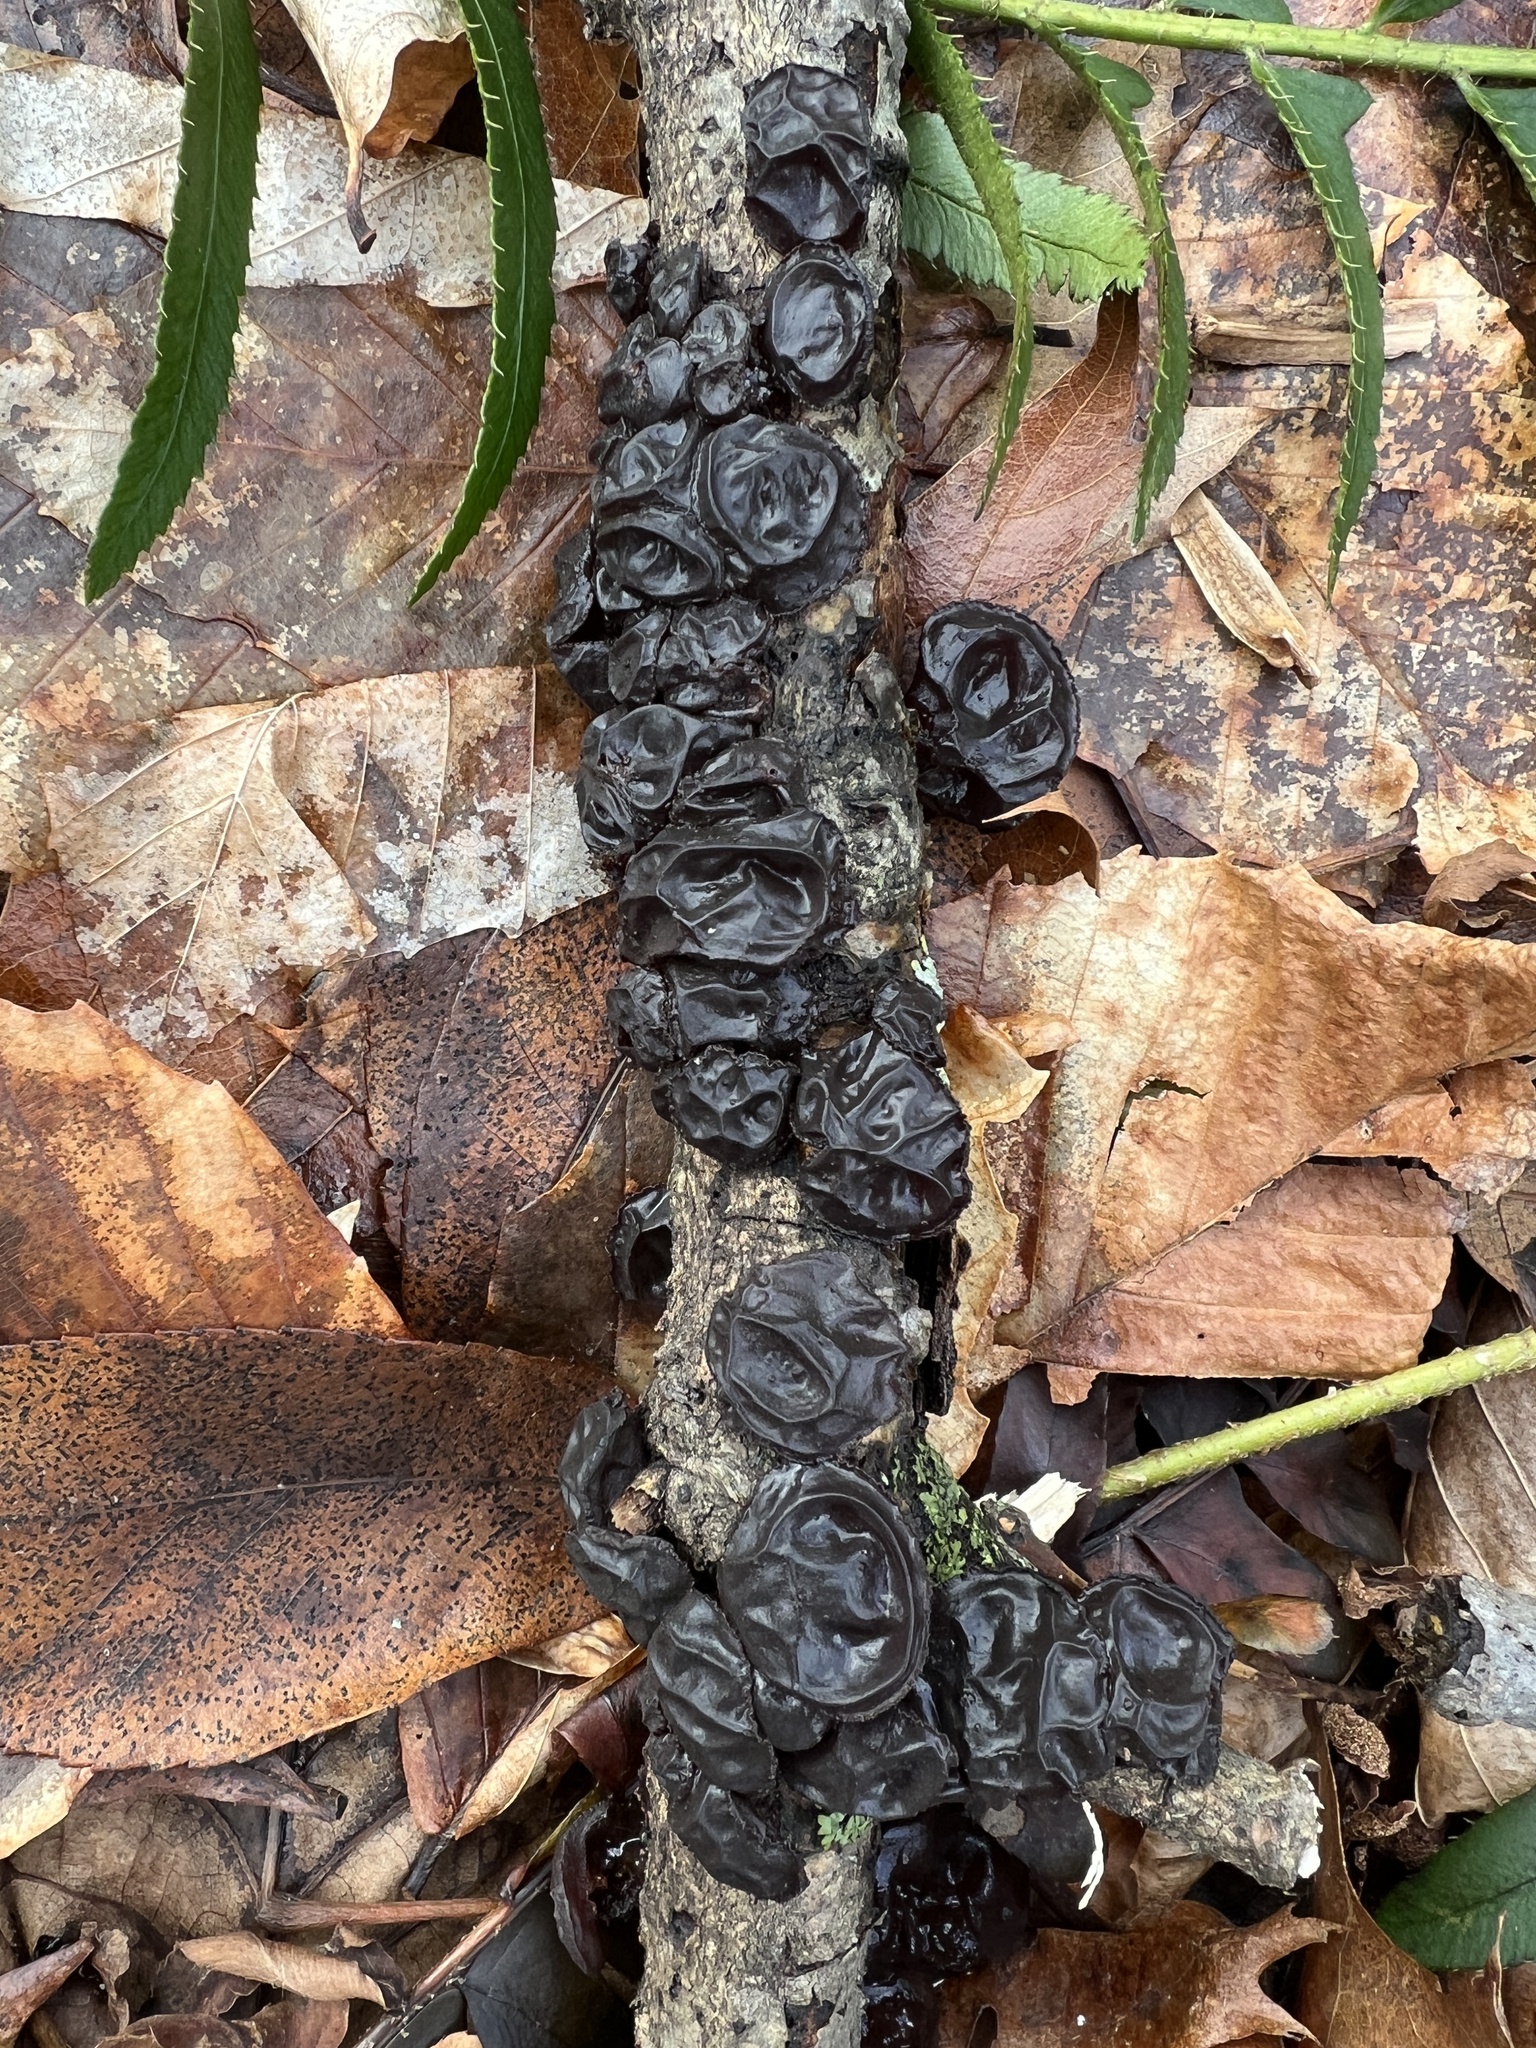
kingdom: Fungi
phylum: Basidiomycota
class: Agaricomycetes
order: Auriculariales
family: Auriculariaceae
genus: Exidia
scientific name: Exidia
